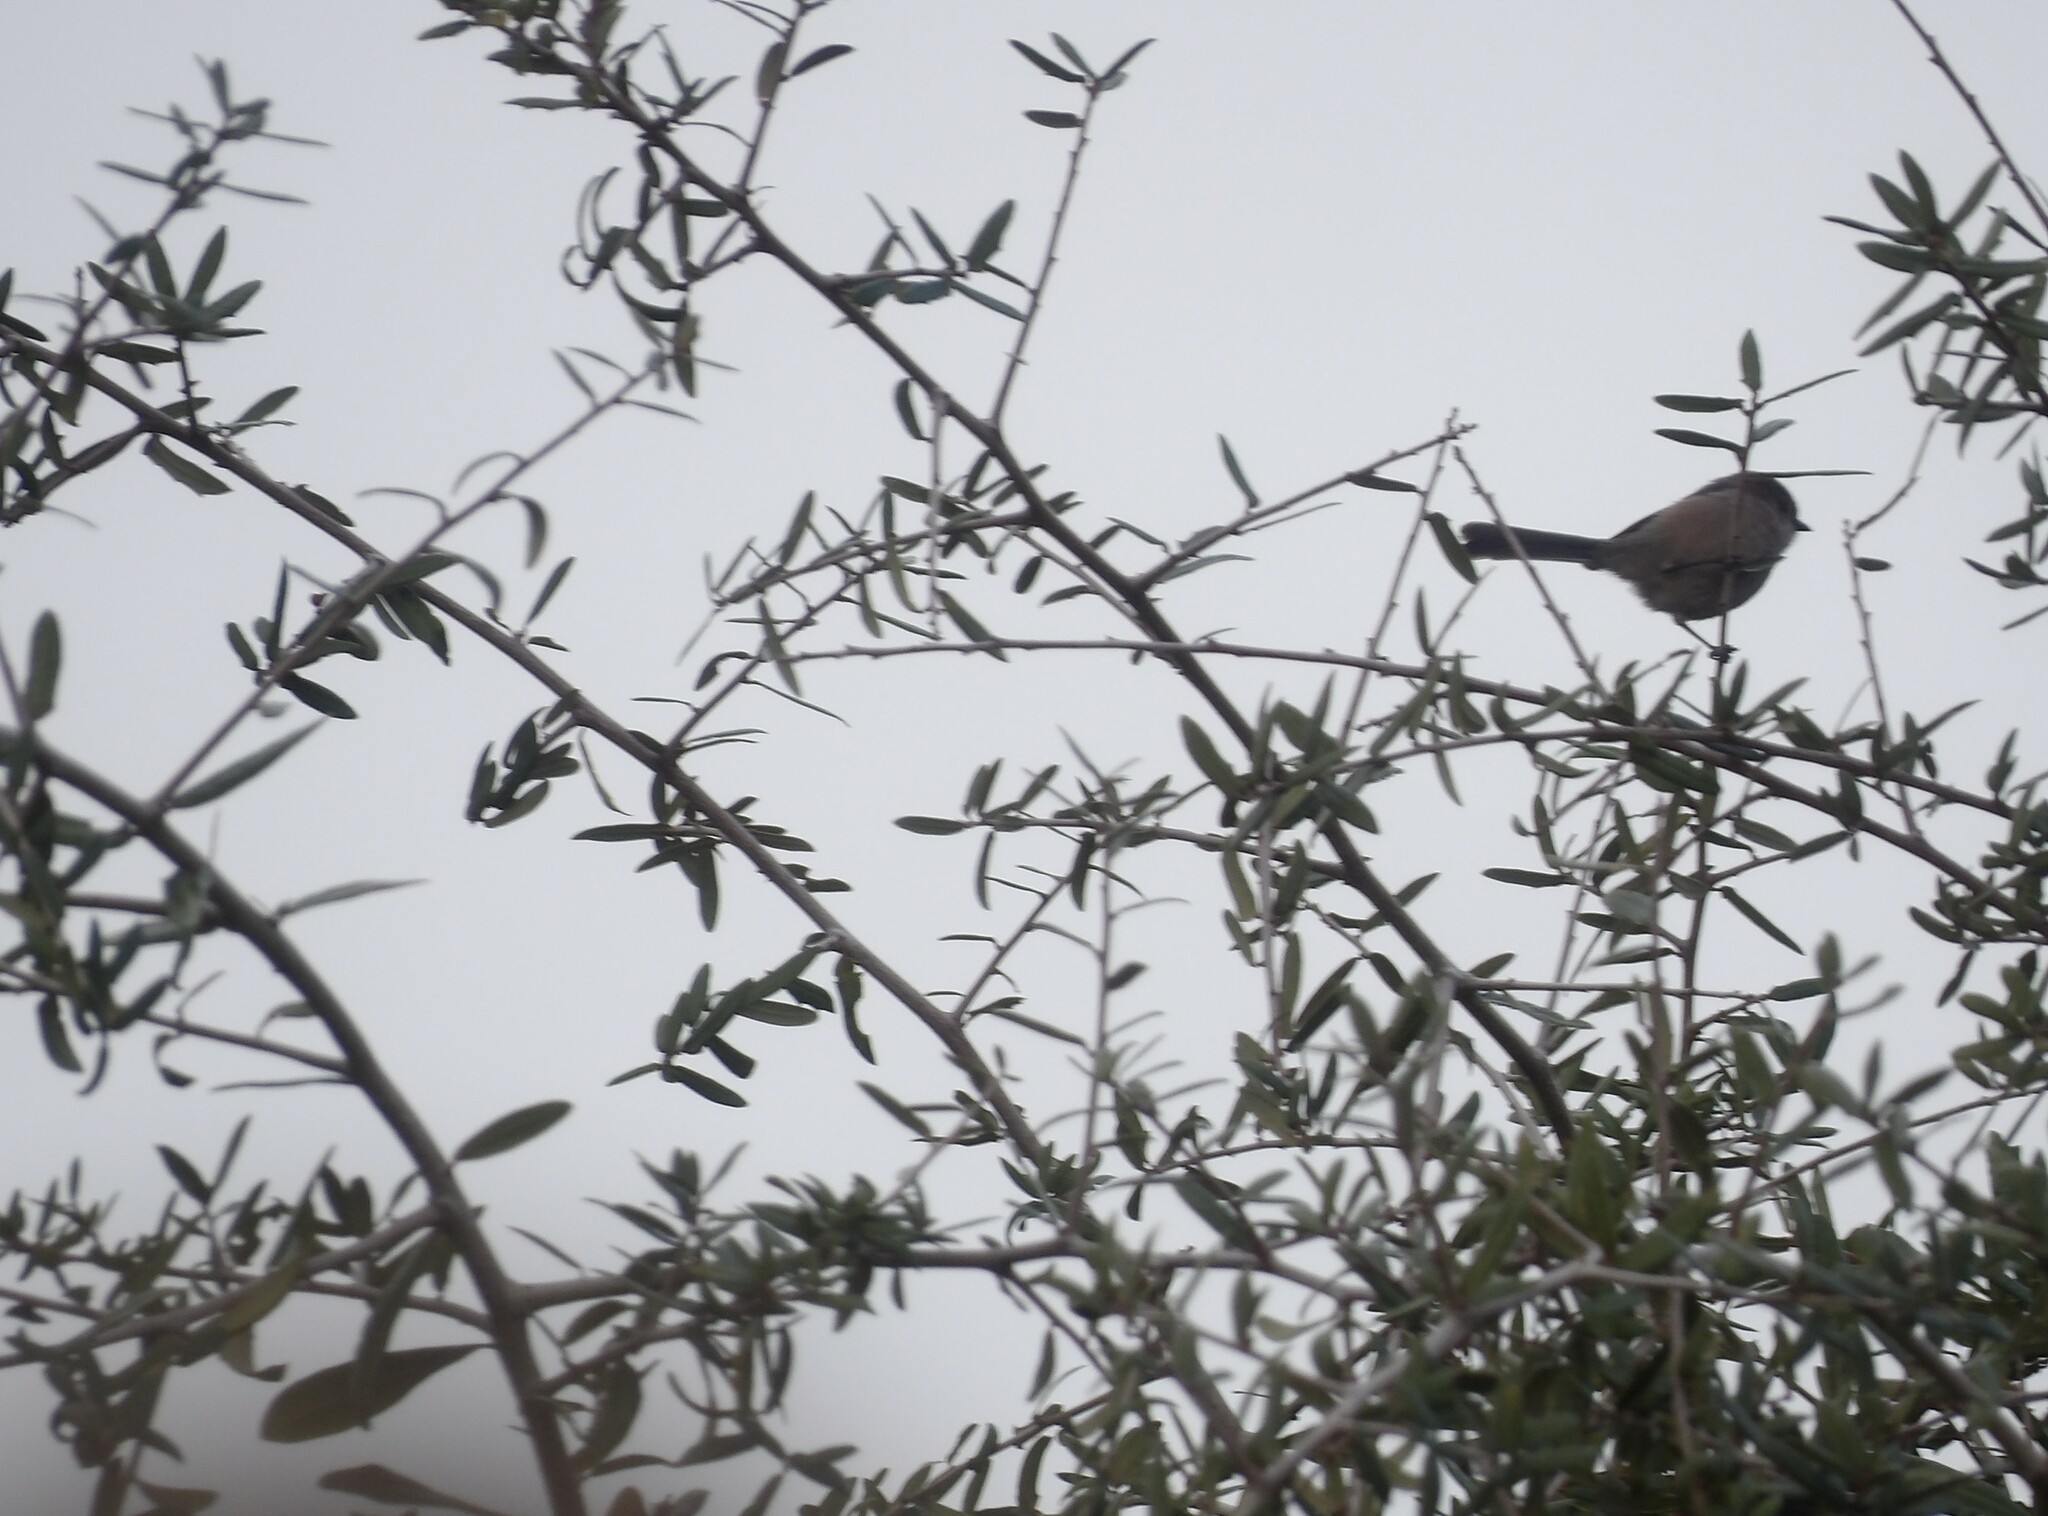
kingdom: Animalia
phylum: Chordata
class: Aves
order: Passeriformes
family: Aegithalidae
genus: Psaltriparus
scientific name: Psaltriparus minimus
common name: American bushtit
